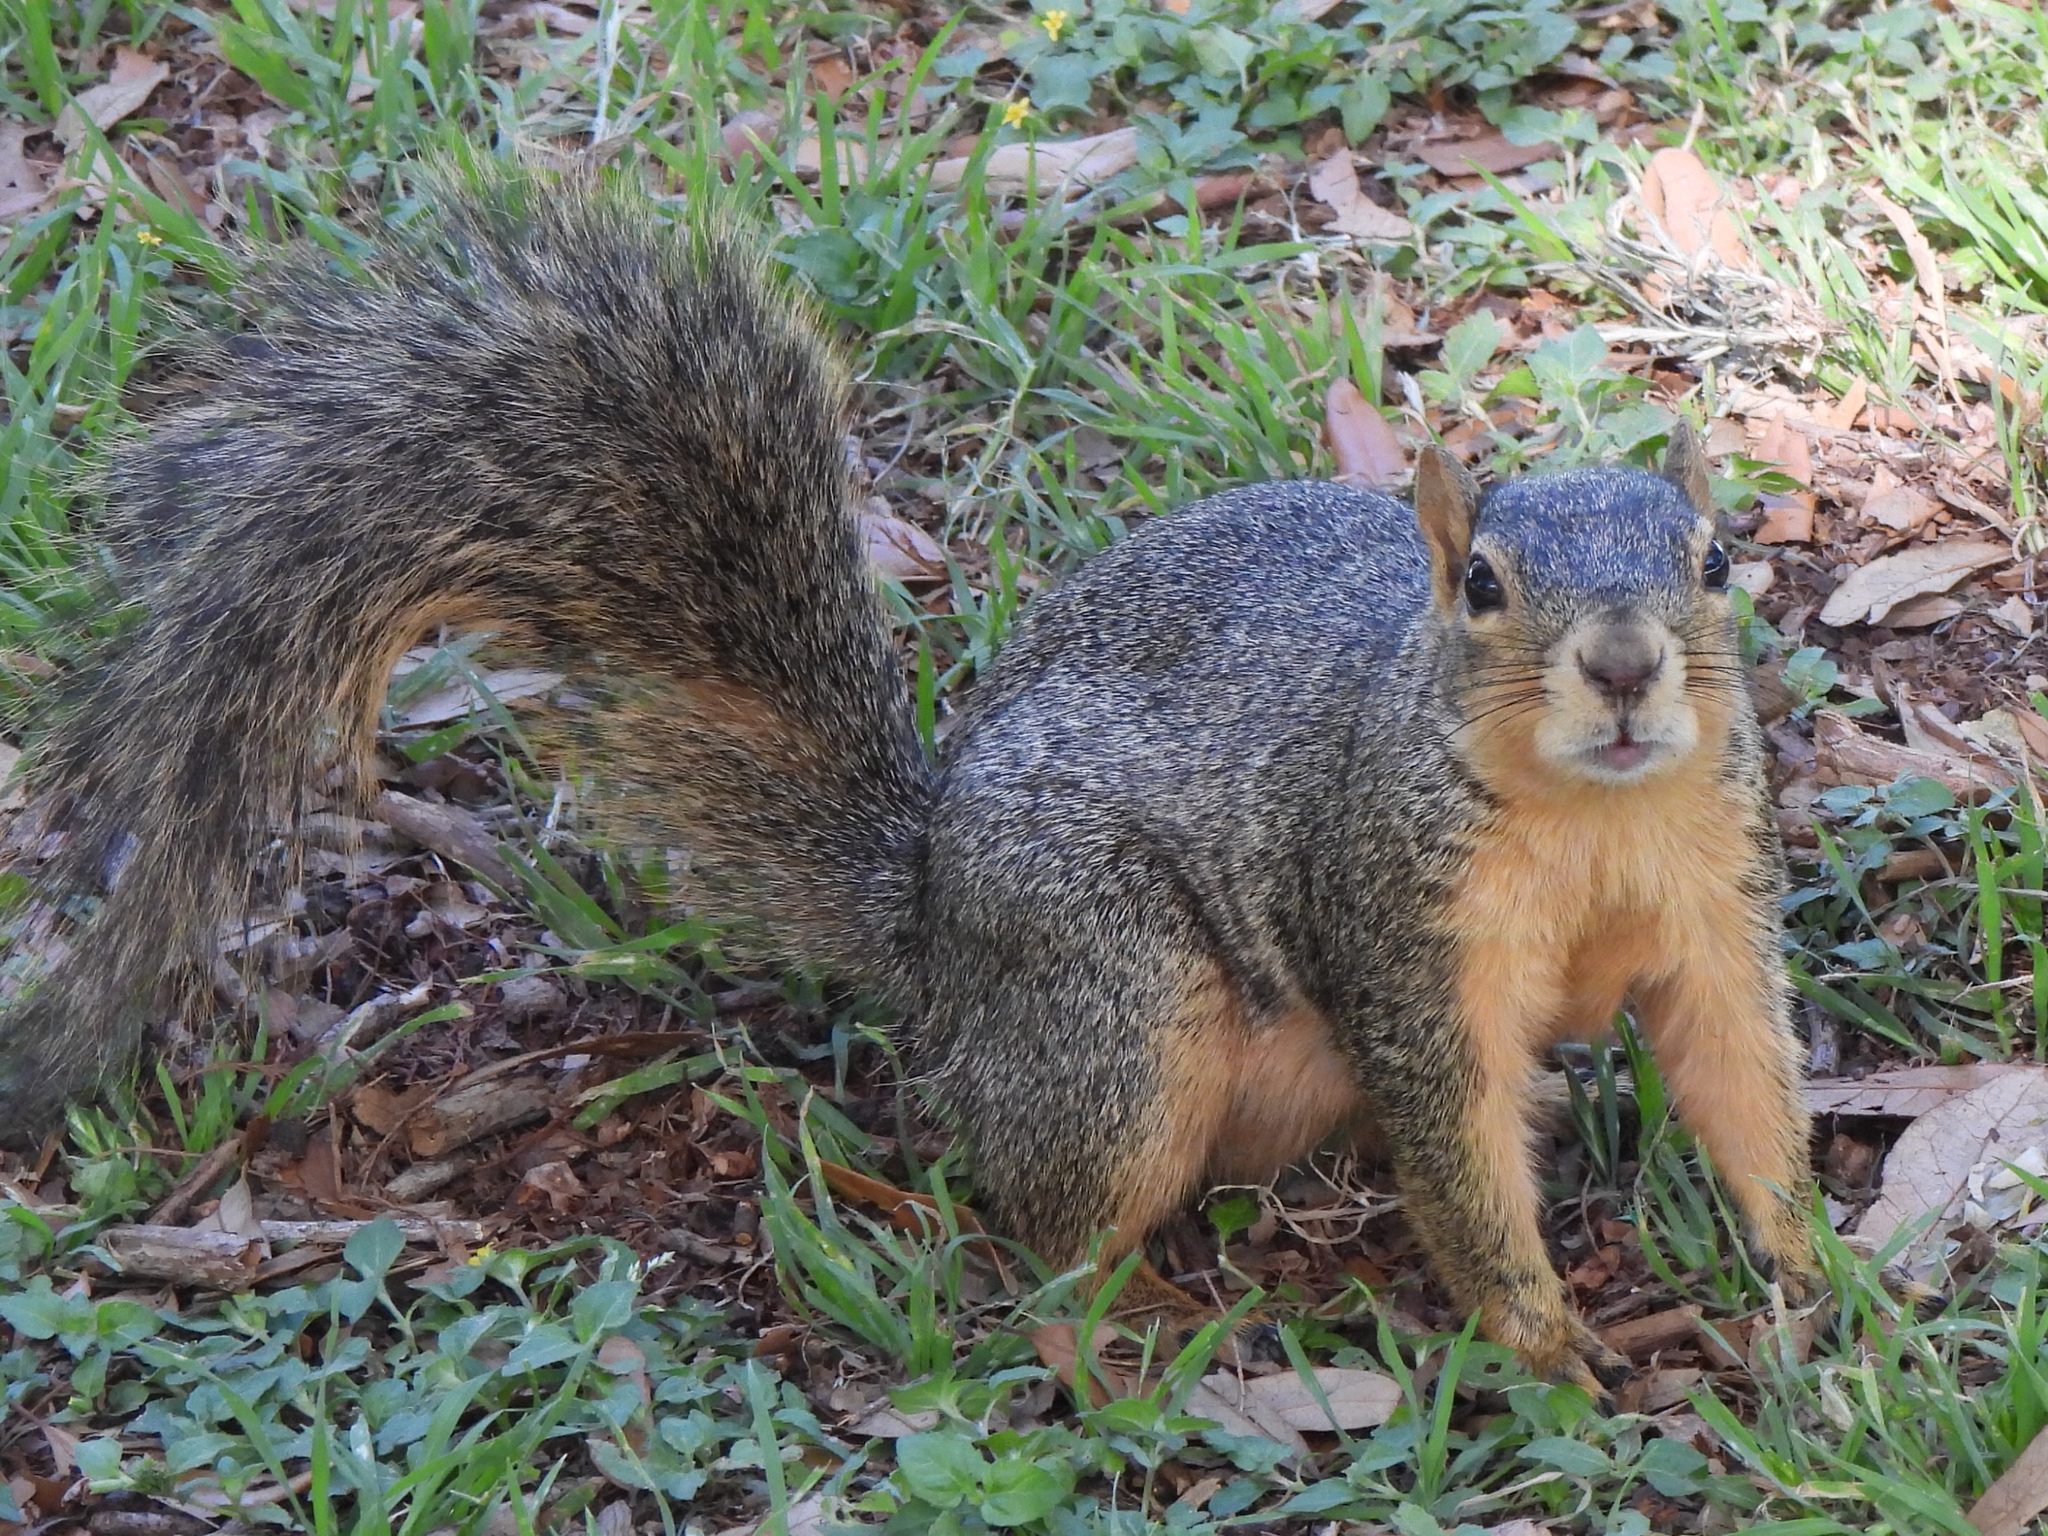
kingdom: Animalia
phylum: Chordata
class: Mammalia
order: Rodentia
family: Sciuridae
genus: Sciurus
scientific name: Sciurus niger
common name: Fox squirrel
